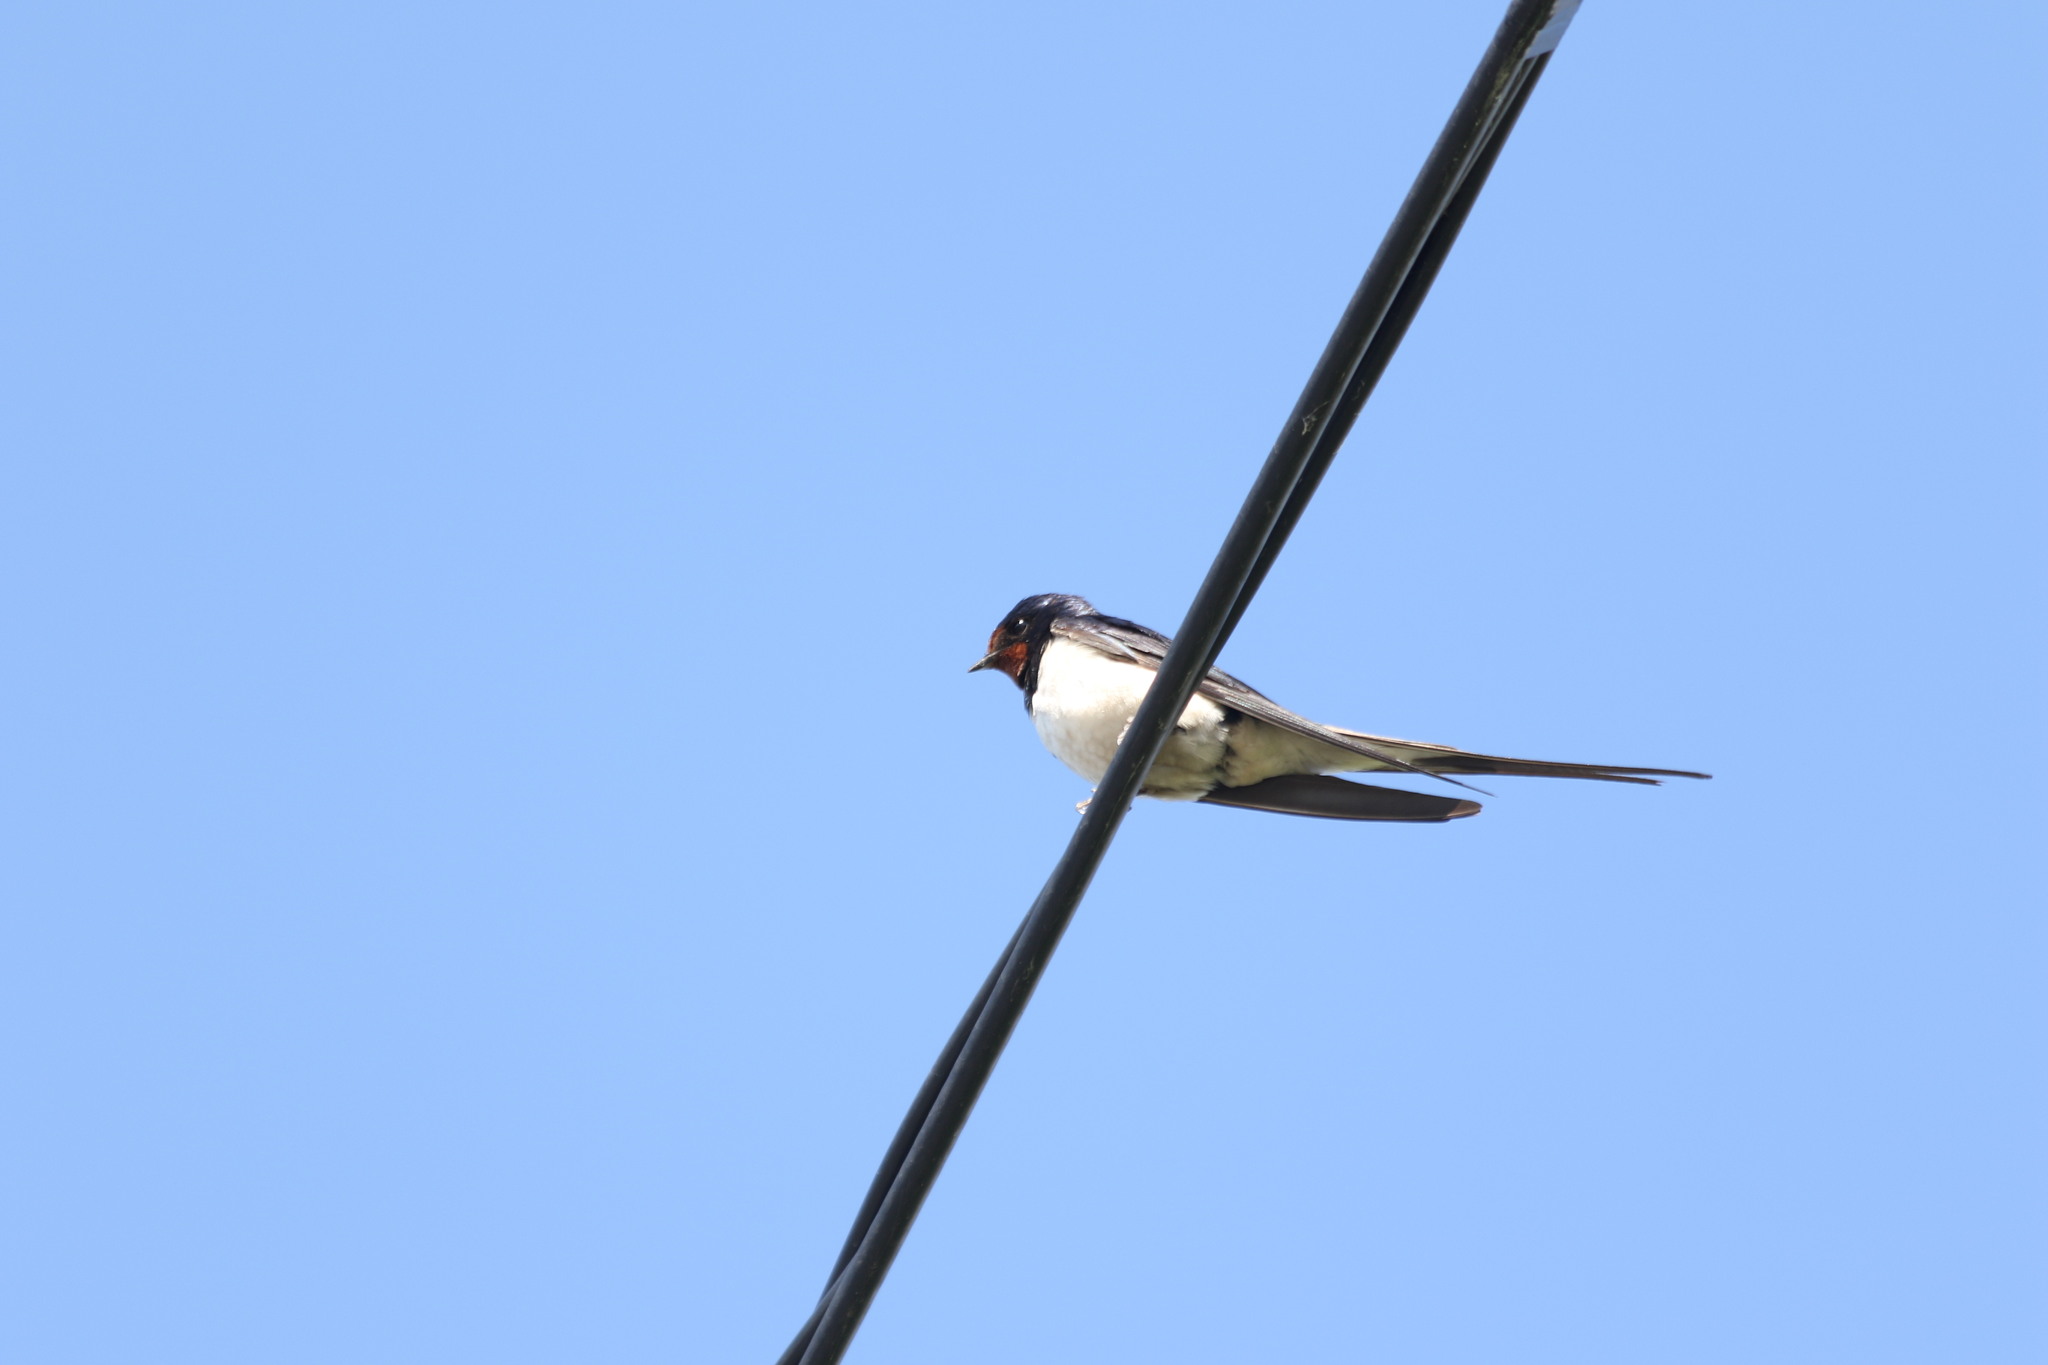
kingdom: Animalia
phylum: Chordata
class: Aves
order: Passeriformes
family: Hirundinidae
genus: Hirundo
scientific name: Hirundo rustica
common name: Barn swallow
